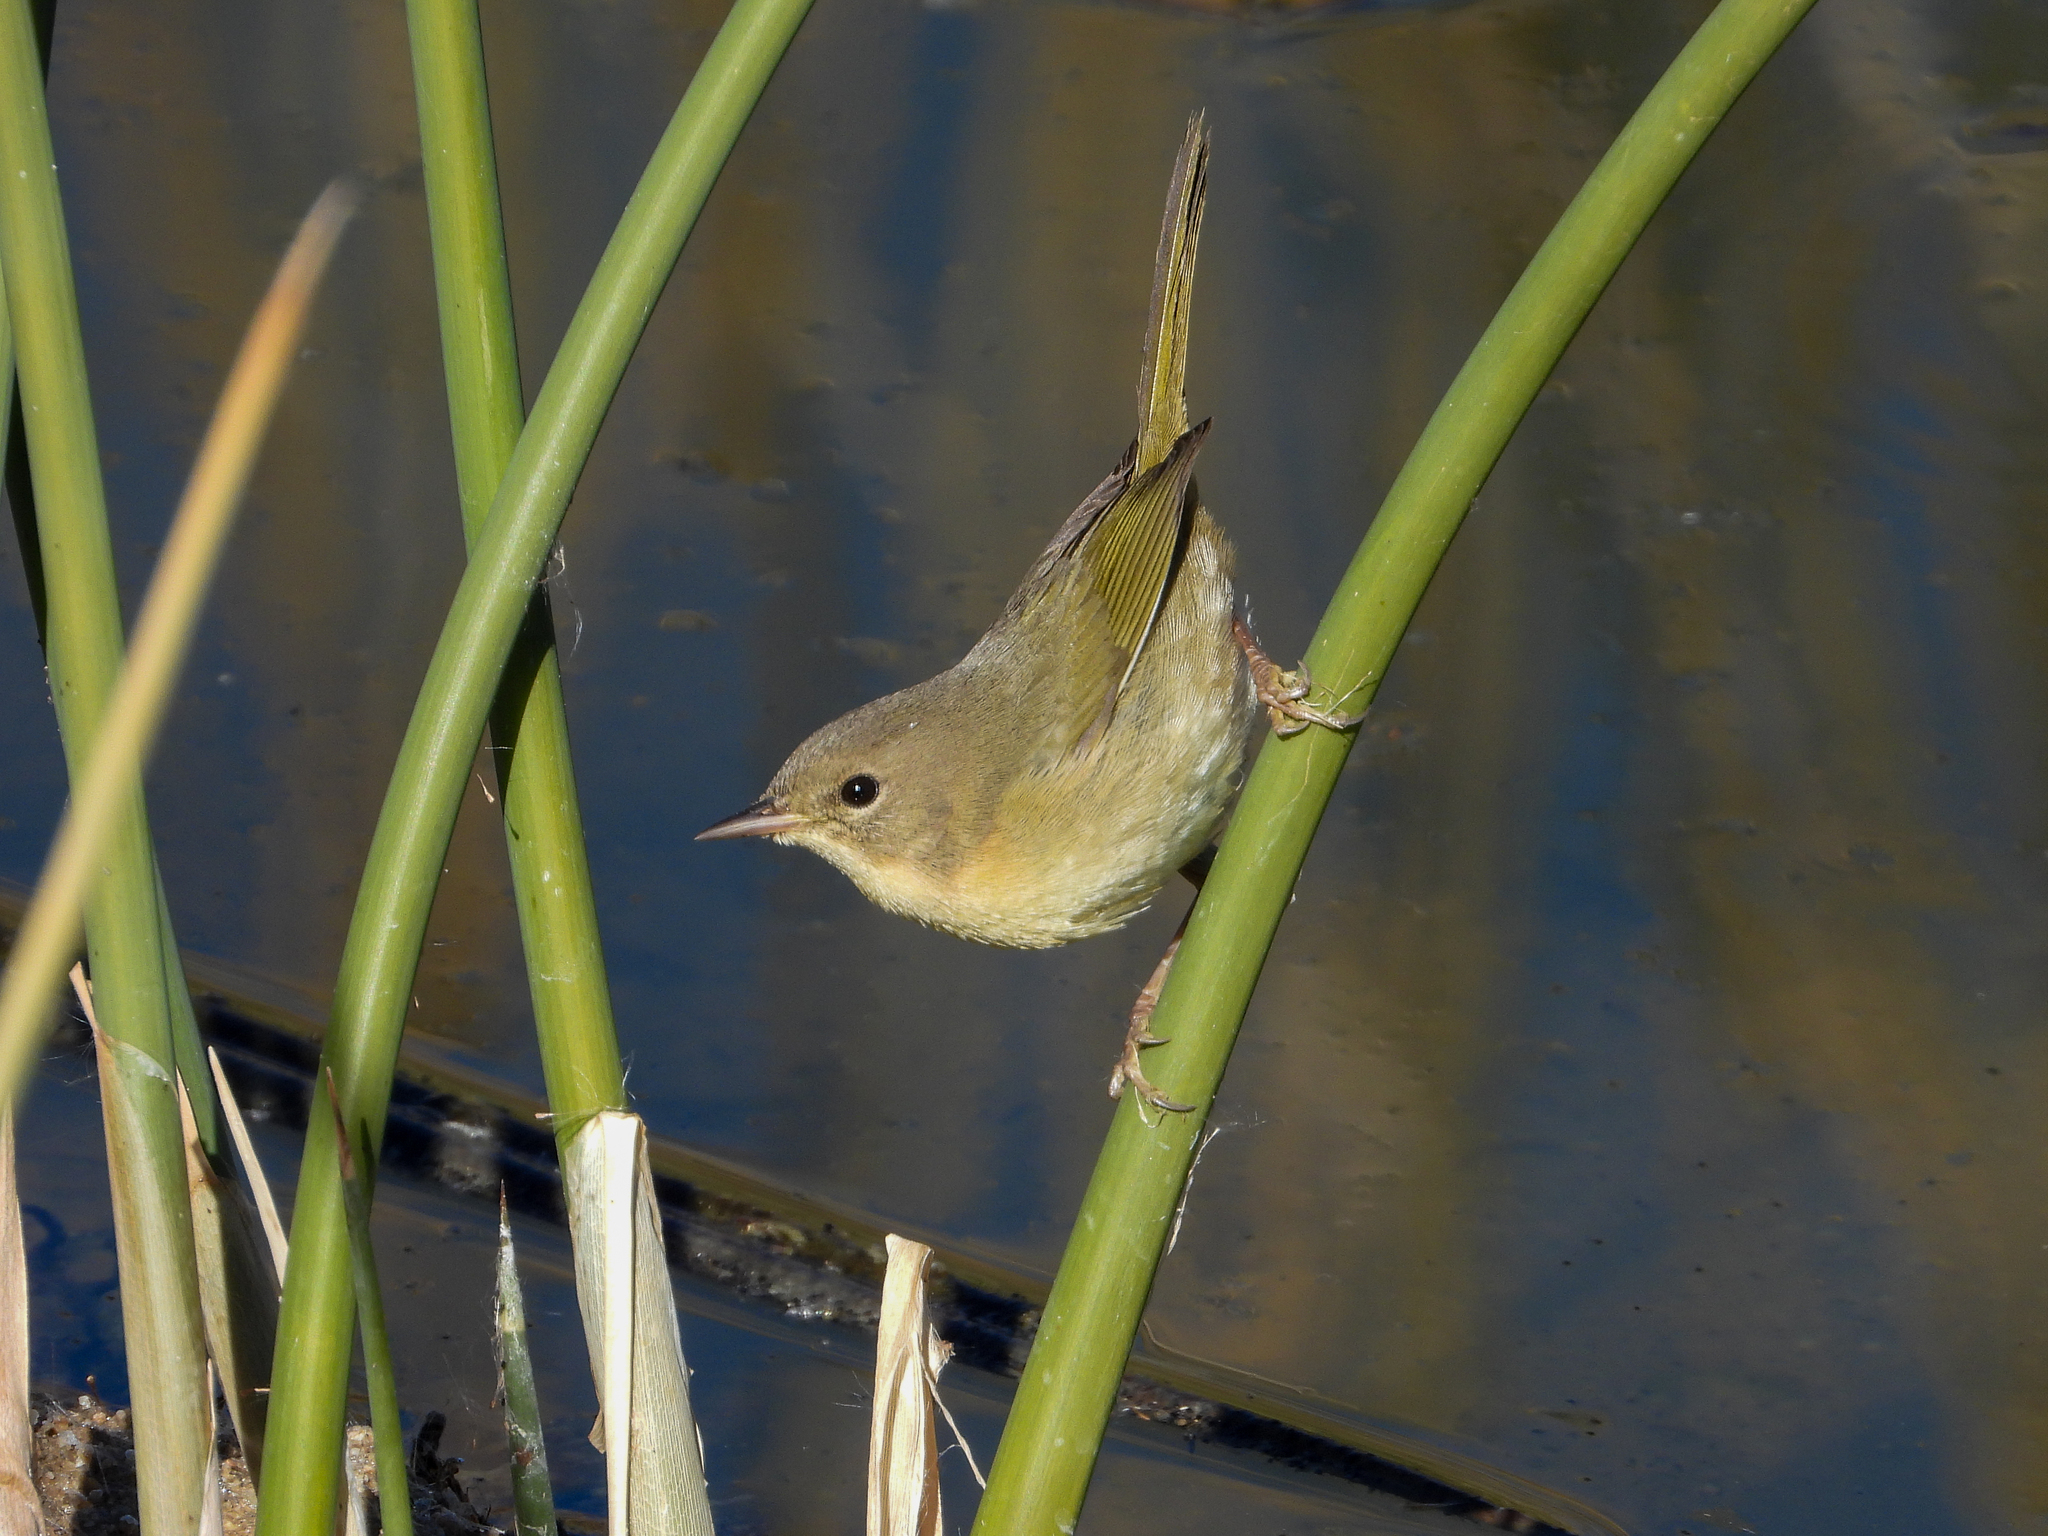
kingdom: Animalia
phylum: Chordata
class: Aves
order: Passeriformes
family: Parulidae
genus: Geothlypis
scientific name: Geothlypis trichas
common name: Common yellowthroat
